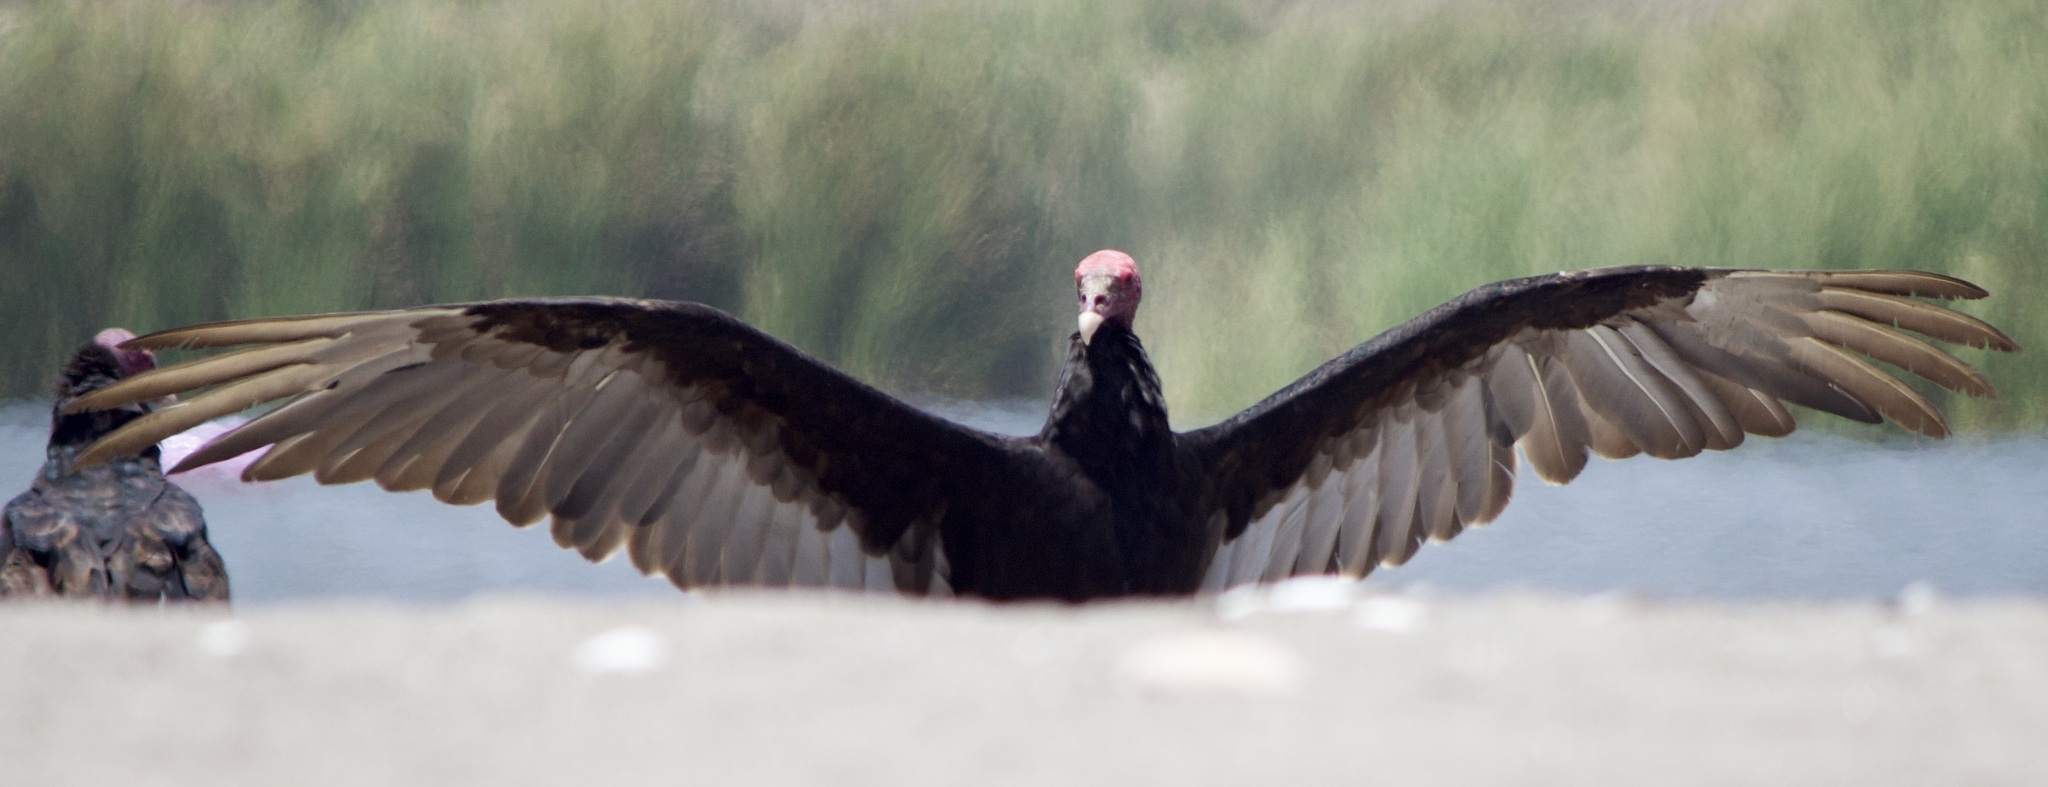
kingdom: Animalia
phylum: Chordata
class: Aves
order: Accipitriformes
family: Cathartidae
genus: Cathartes
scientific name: Cathartes aura
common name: Turkey vulture
